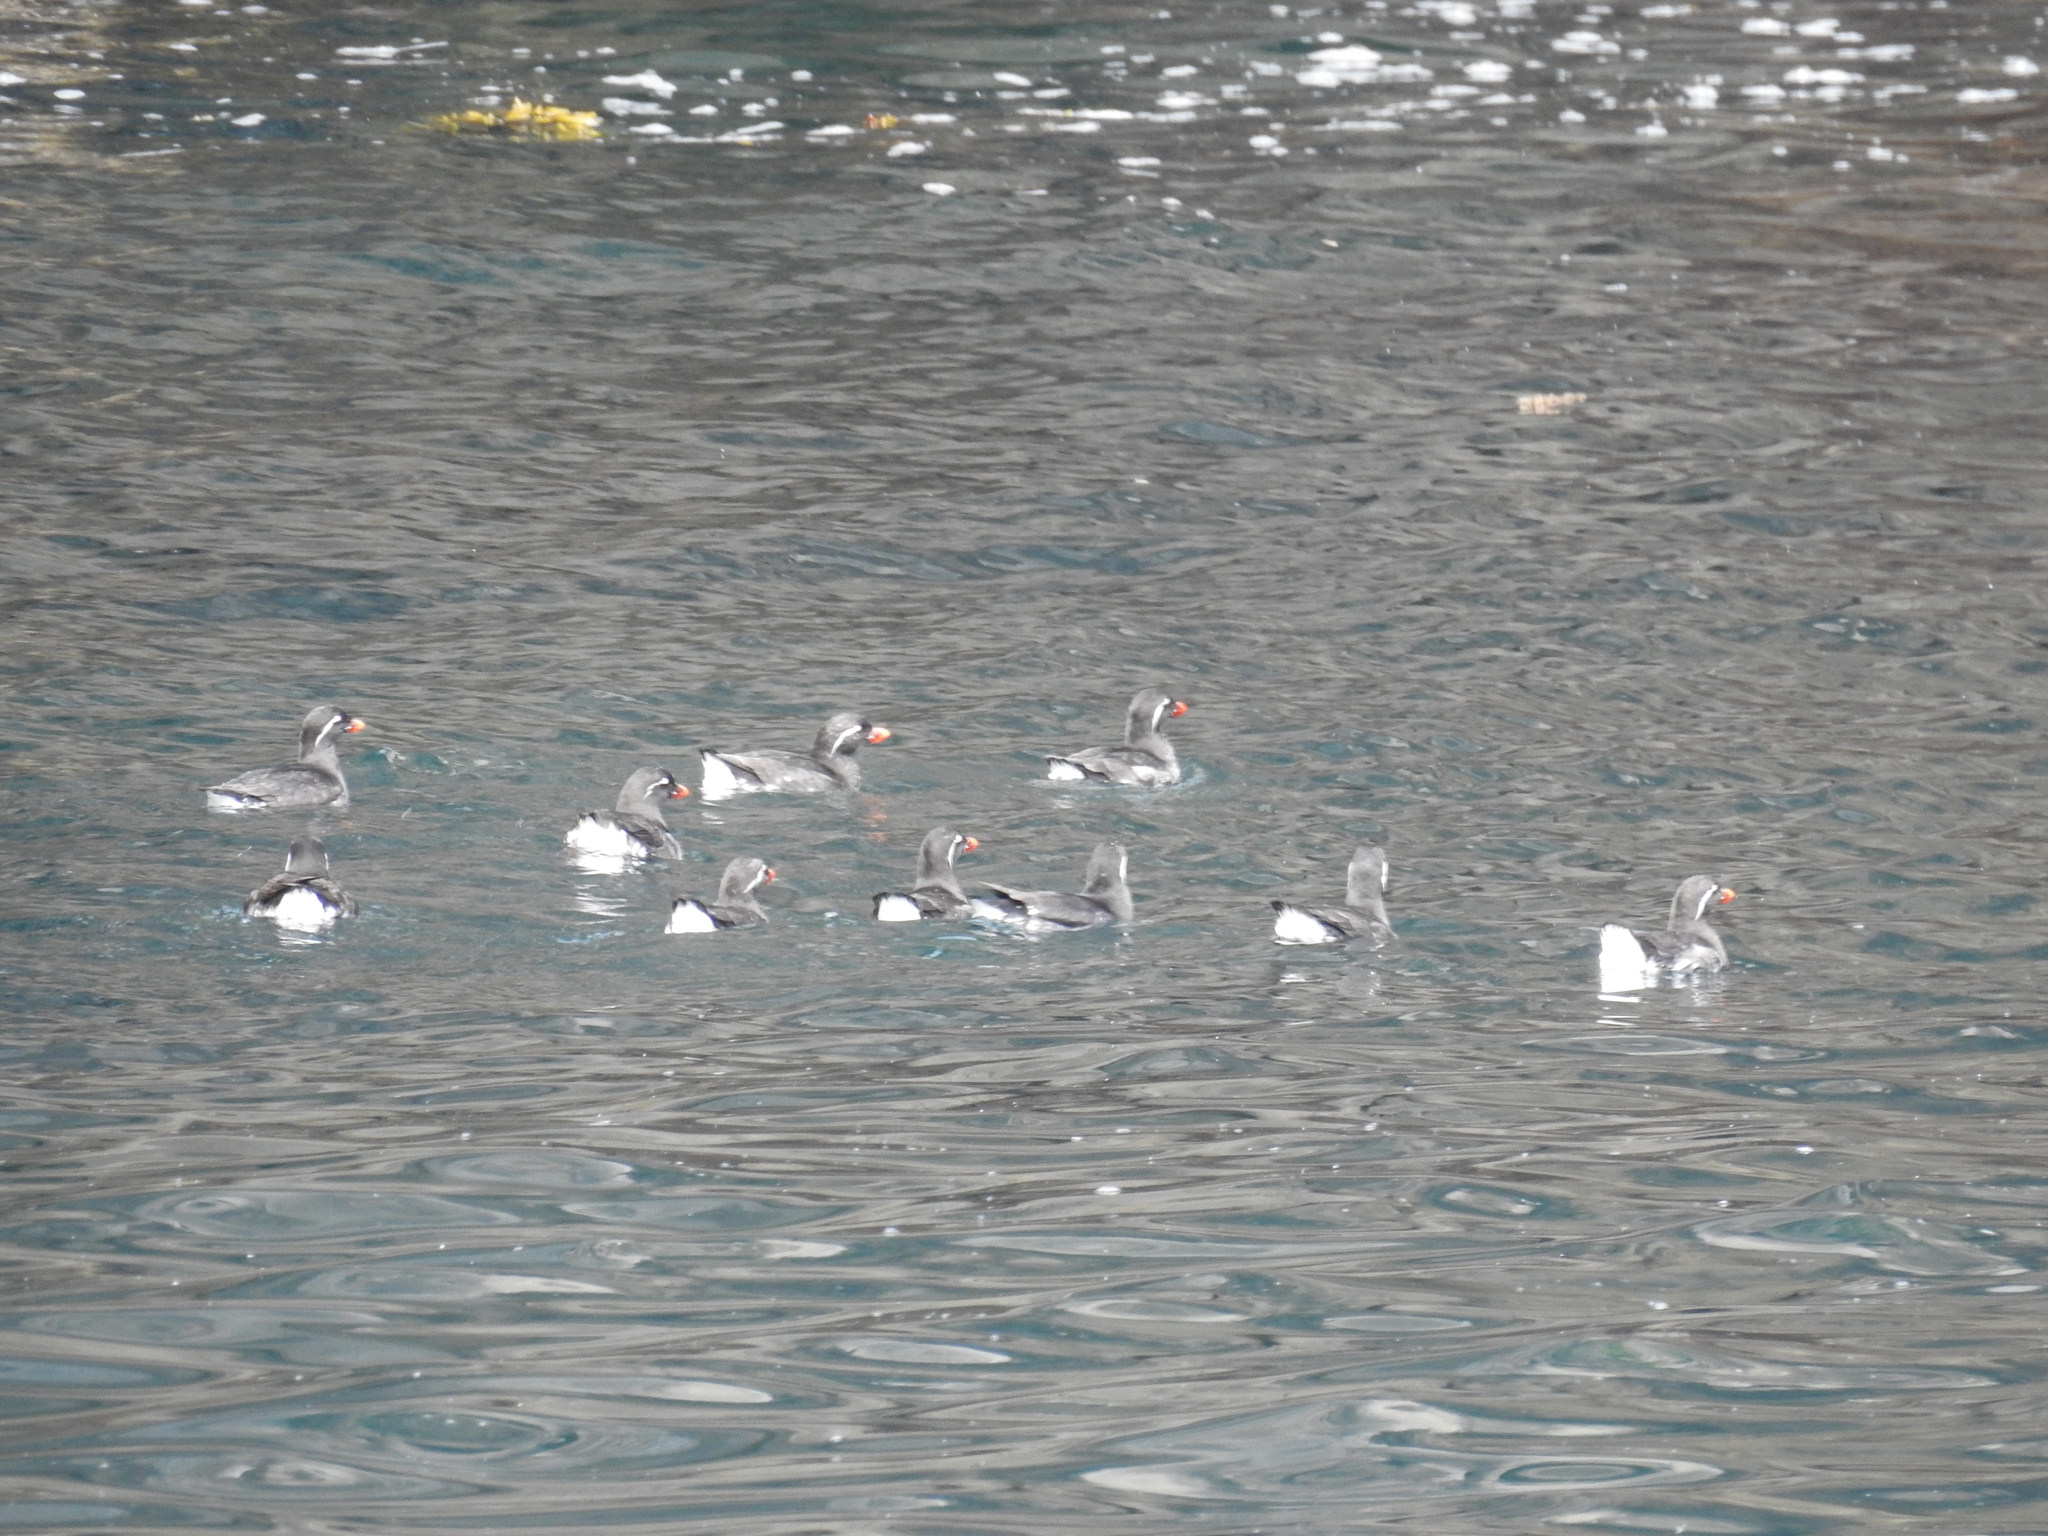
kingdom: Animalia
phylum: Chordata
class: Aves
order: Charadriiformes
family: Alcidae
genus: Aethia
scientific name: Aethia psittacula
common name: Parakeet auklet
